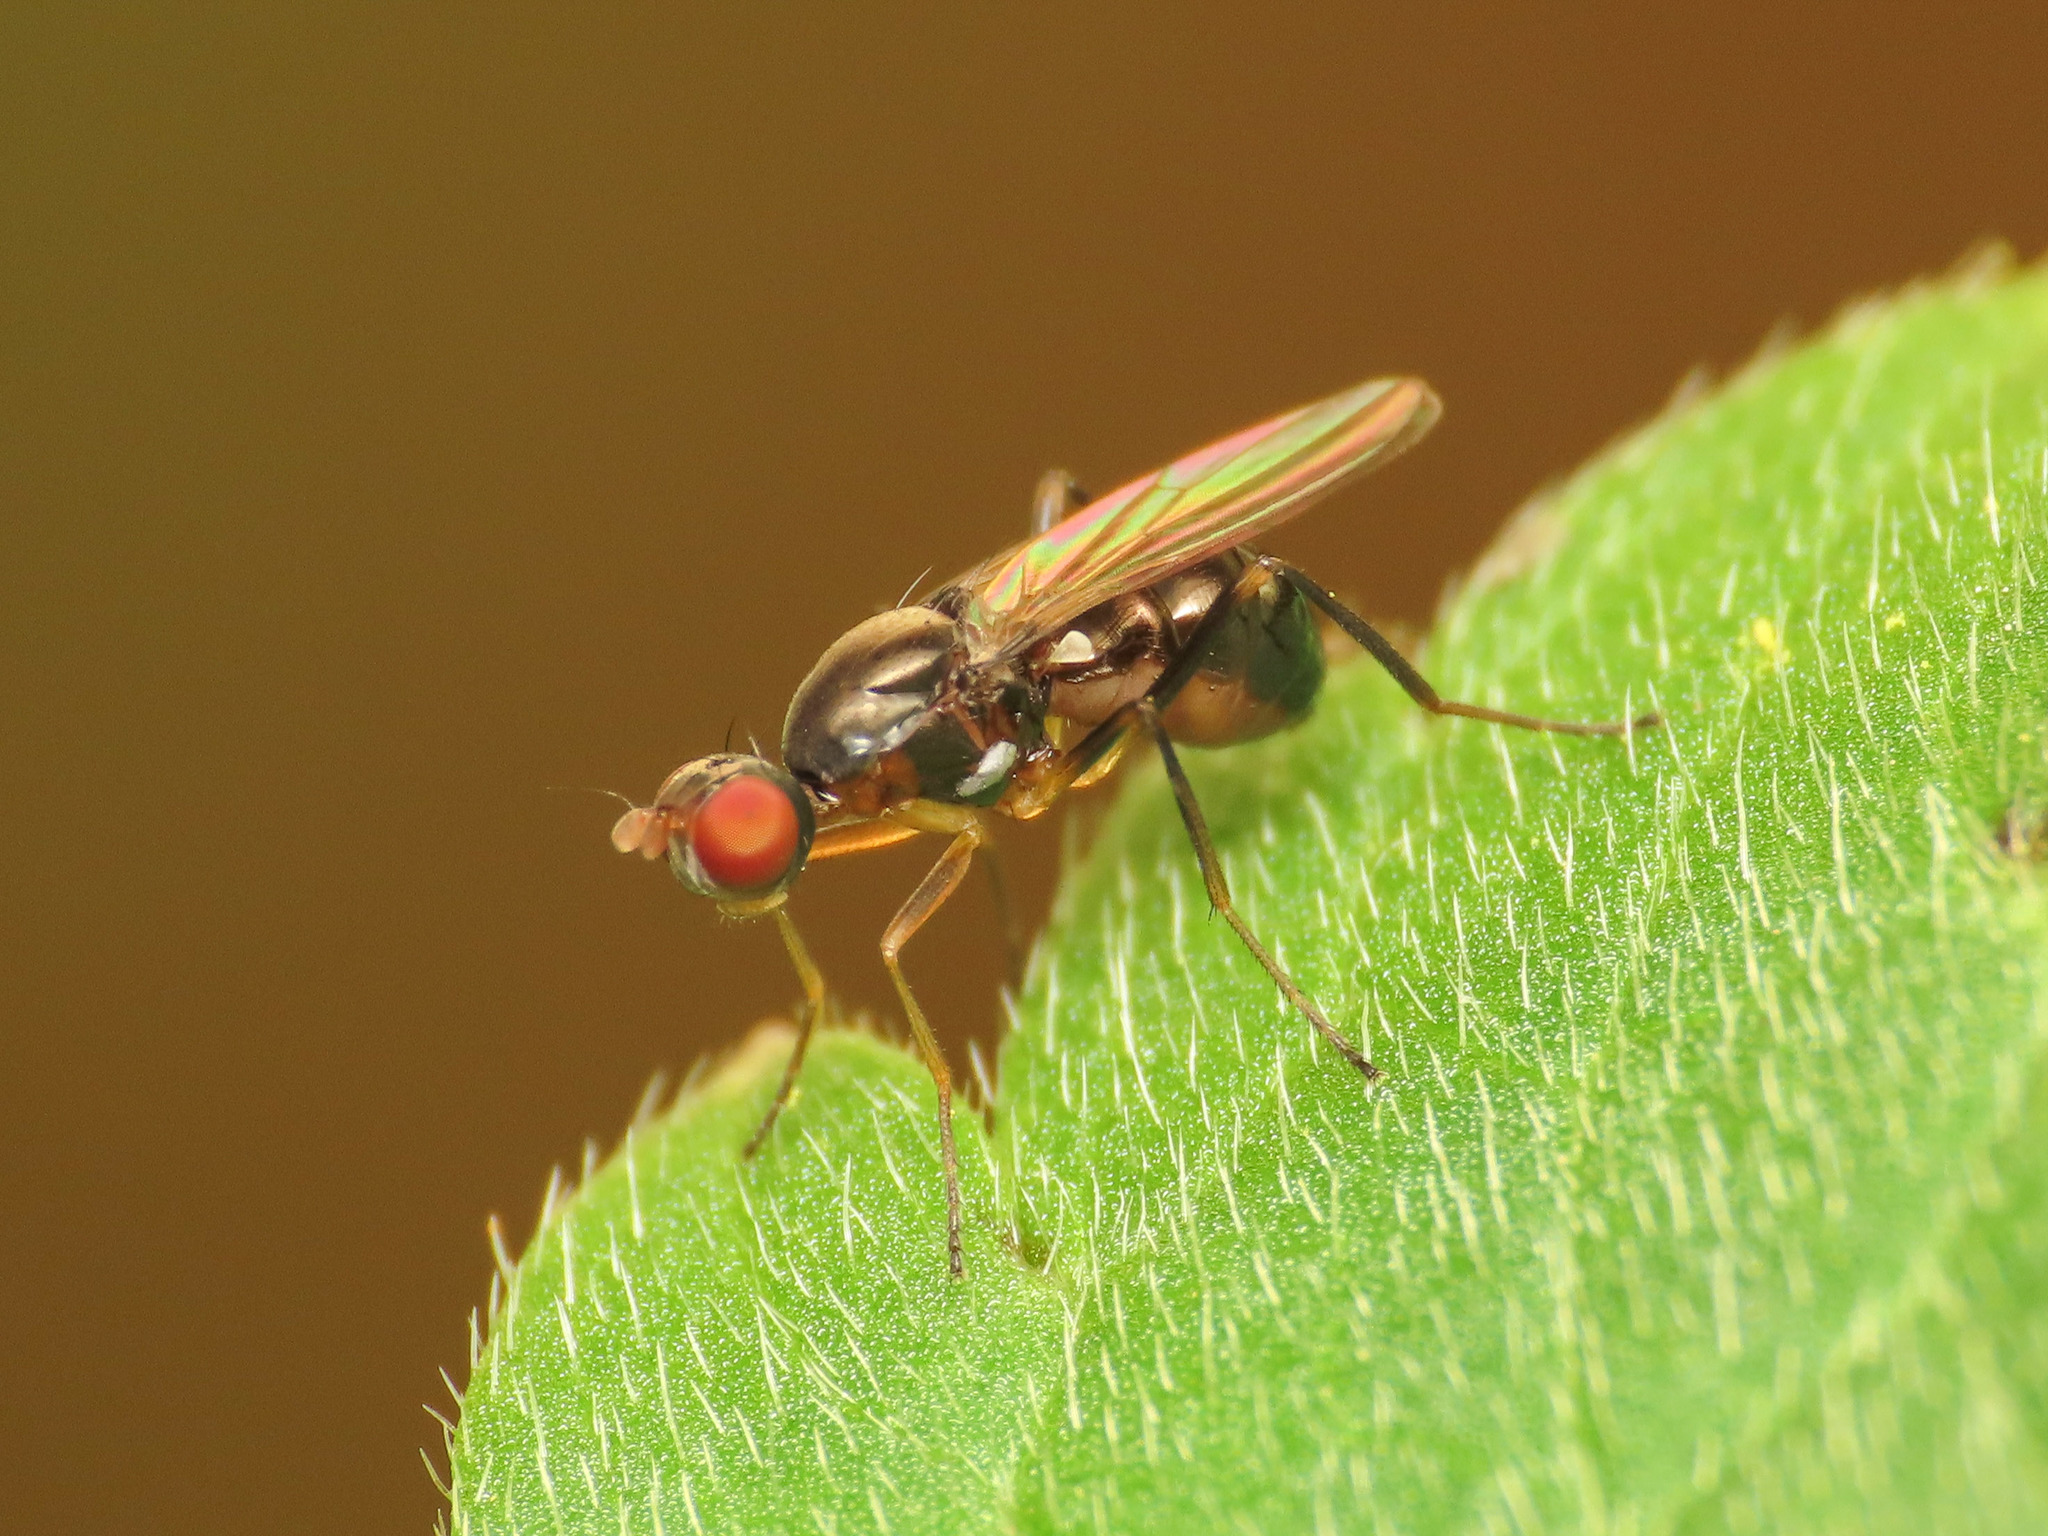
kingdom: Animalia
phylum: Arthropoda
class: Insecta
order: Diptera
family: Sepsidae
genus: Nemopoda
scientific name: Nemopoda nitidula
